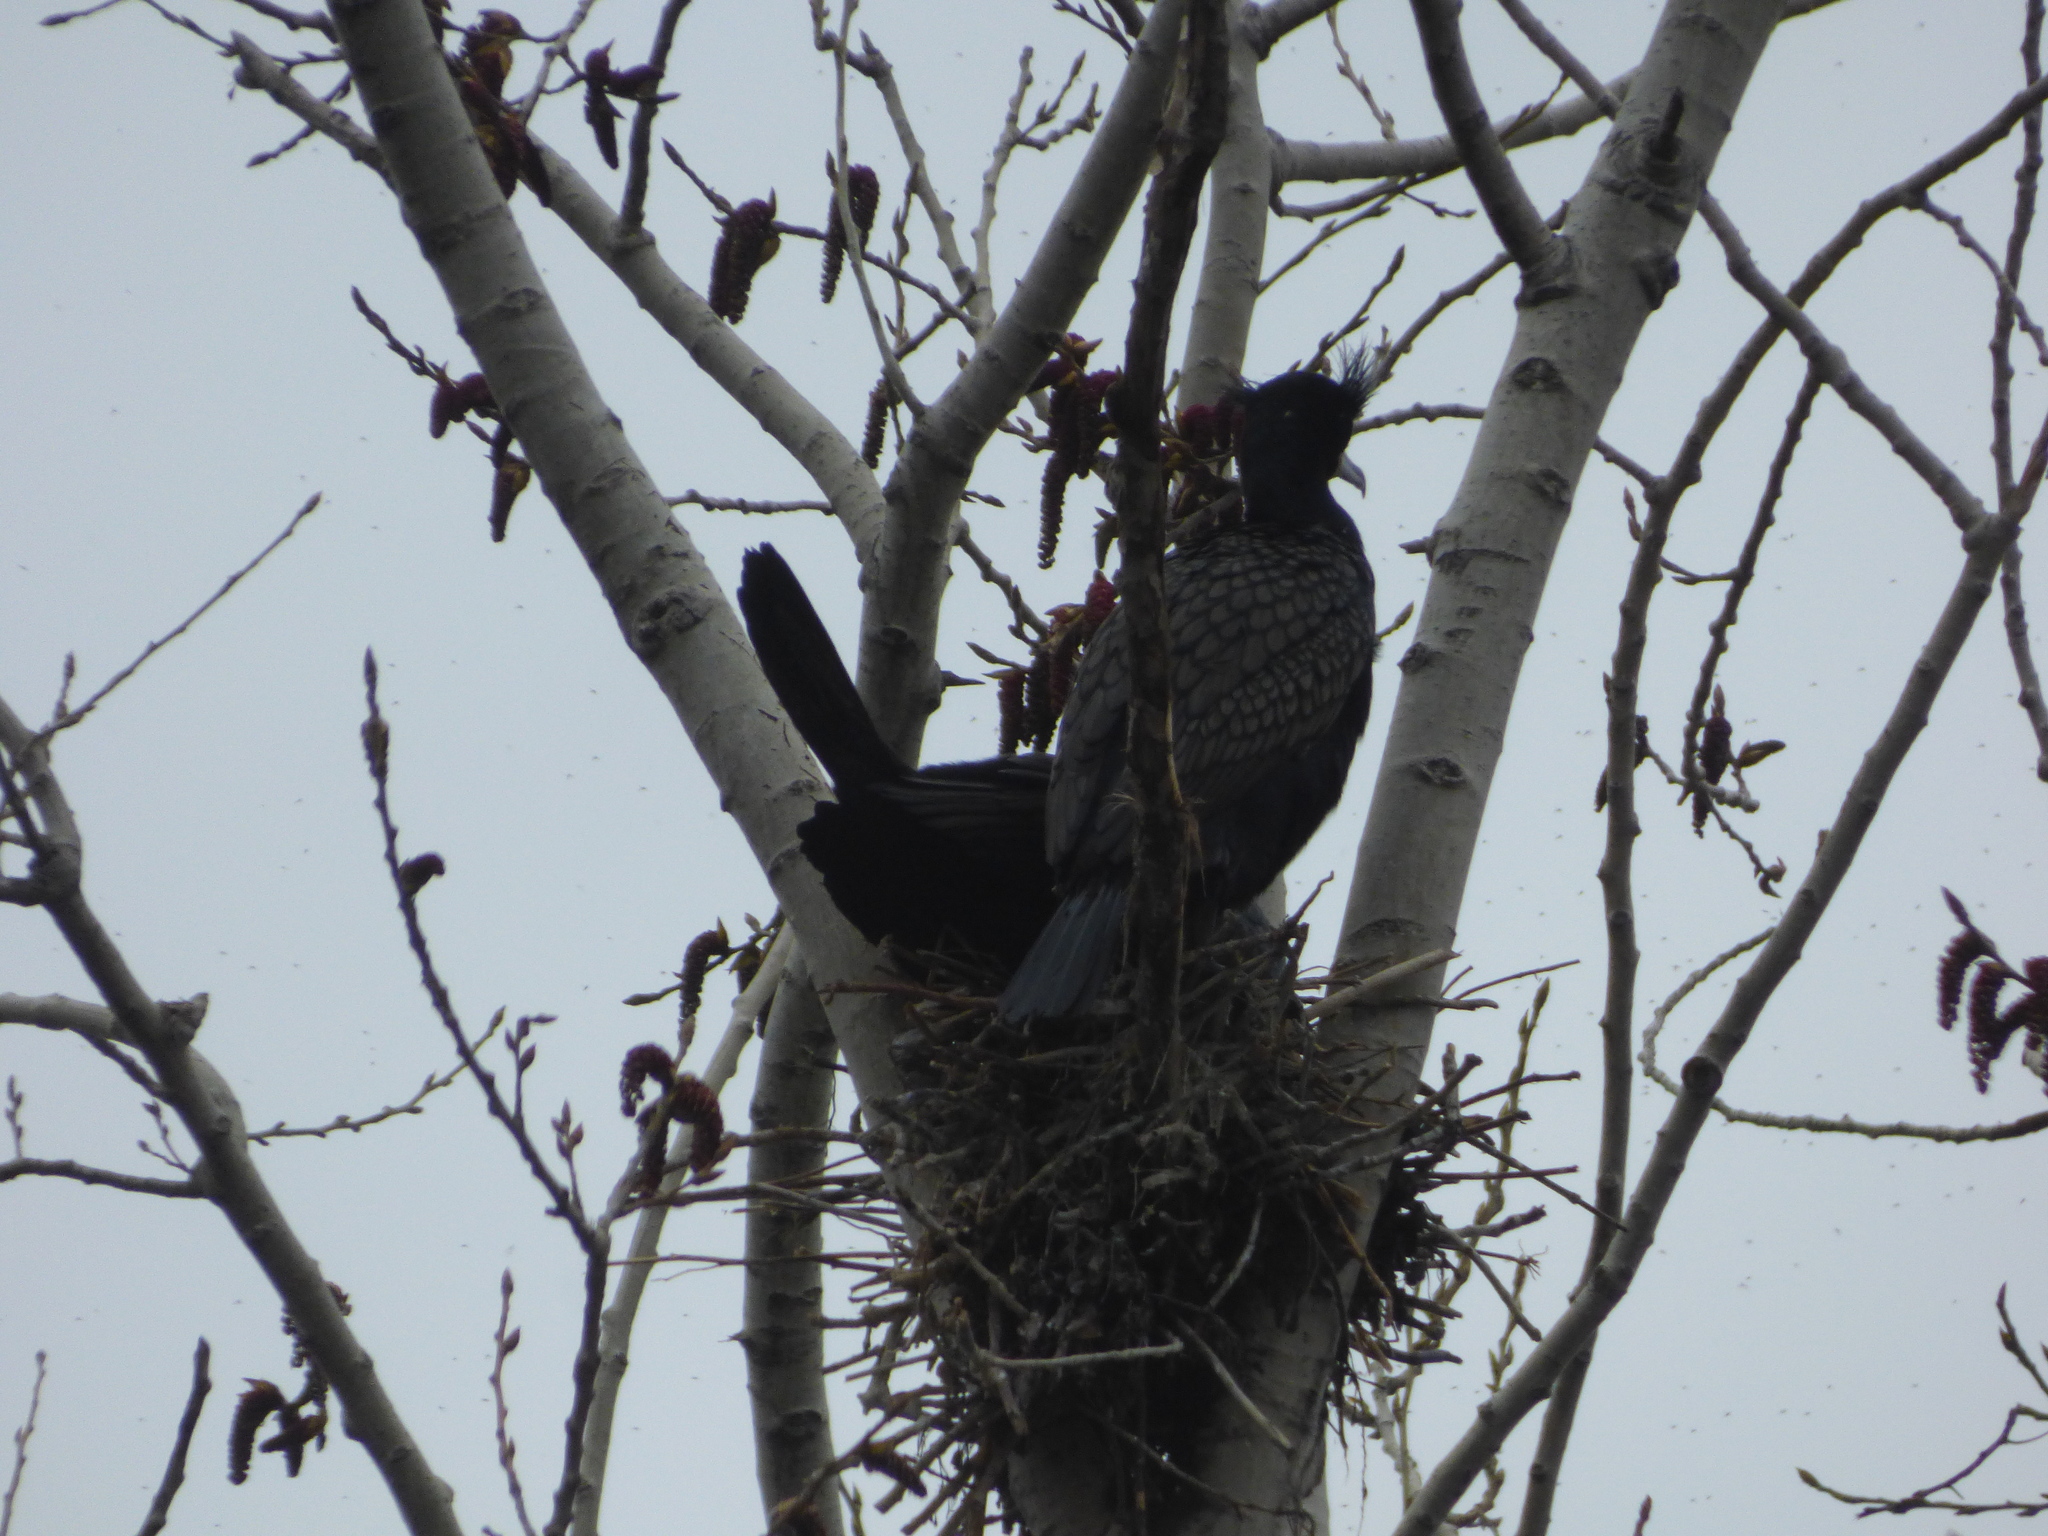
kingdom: Animalia
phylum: Chordata
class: Aves
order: Suliformes
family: Phalacrocoracidae
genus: Phalacrocorax
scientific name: Phalacrocorax auritus
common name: Double-crested cormorant
